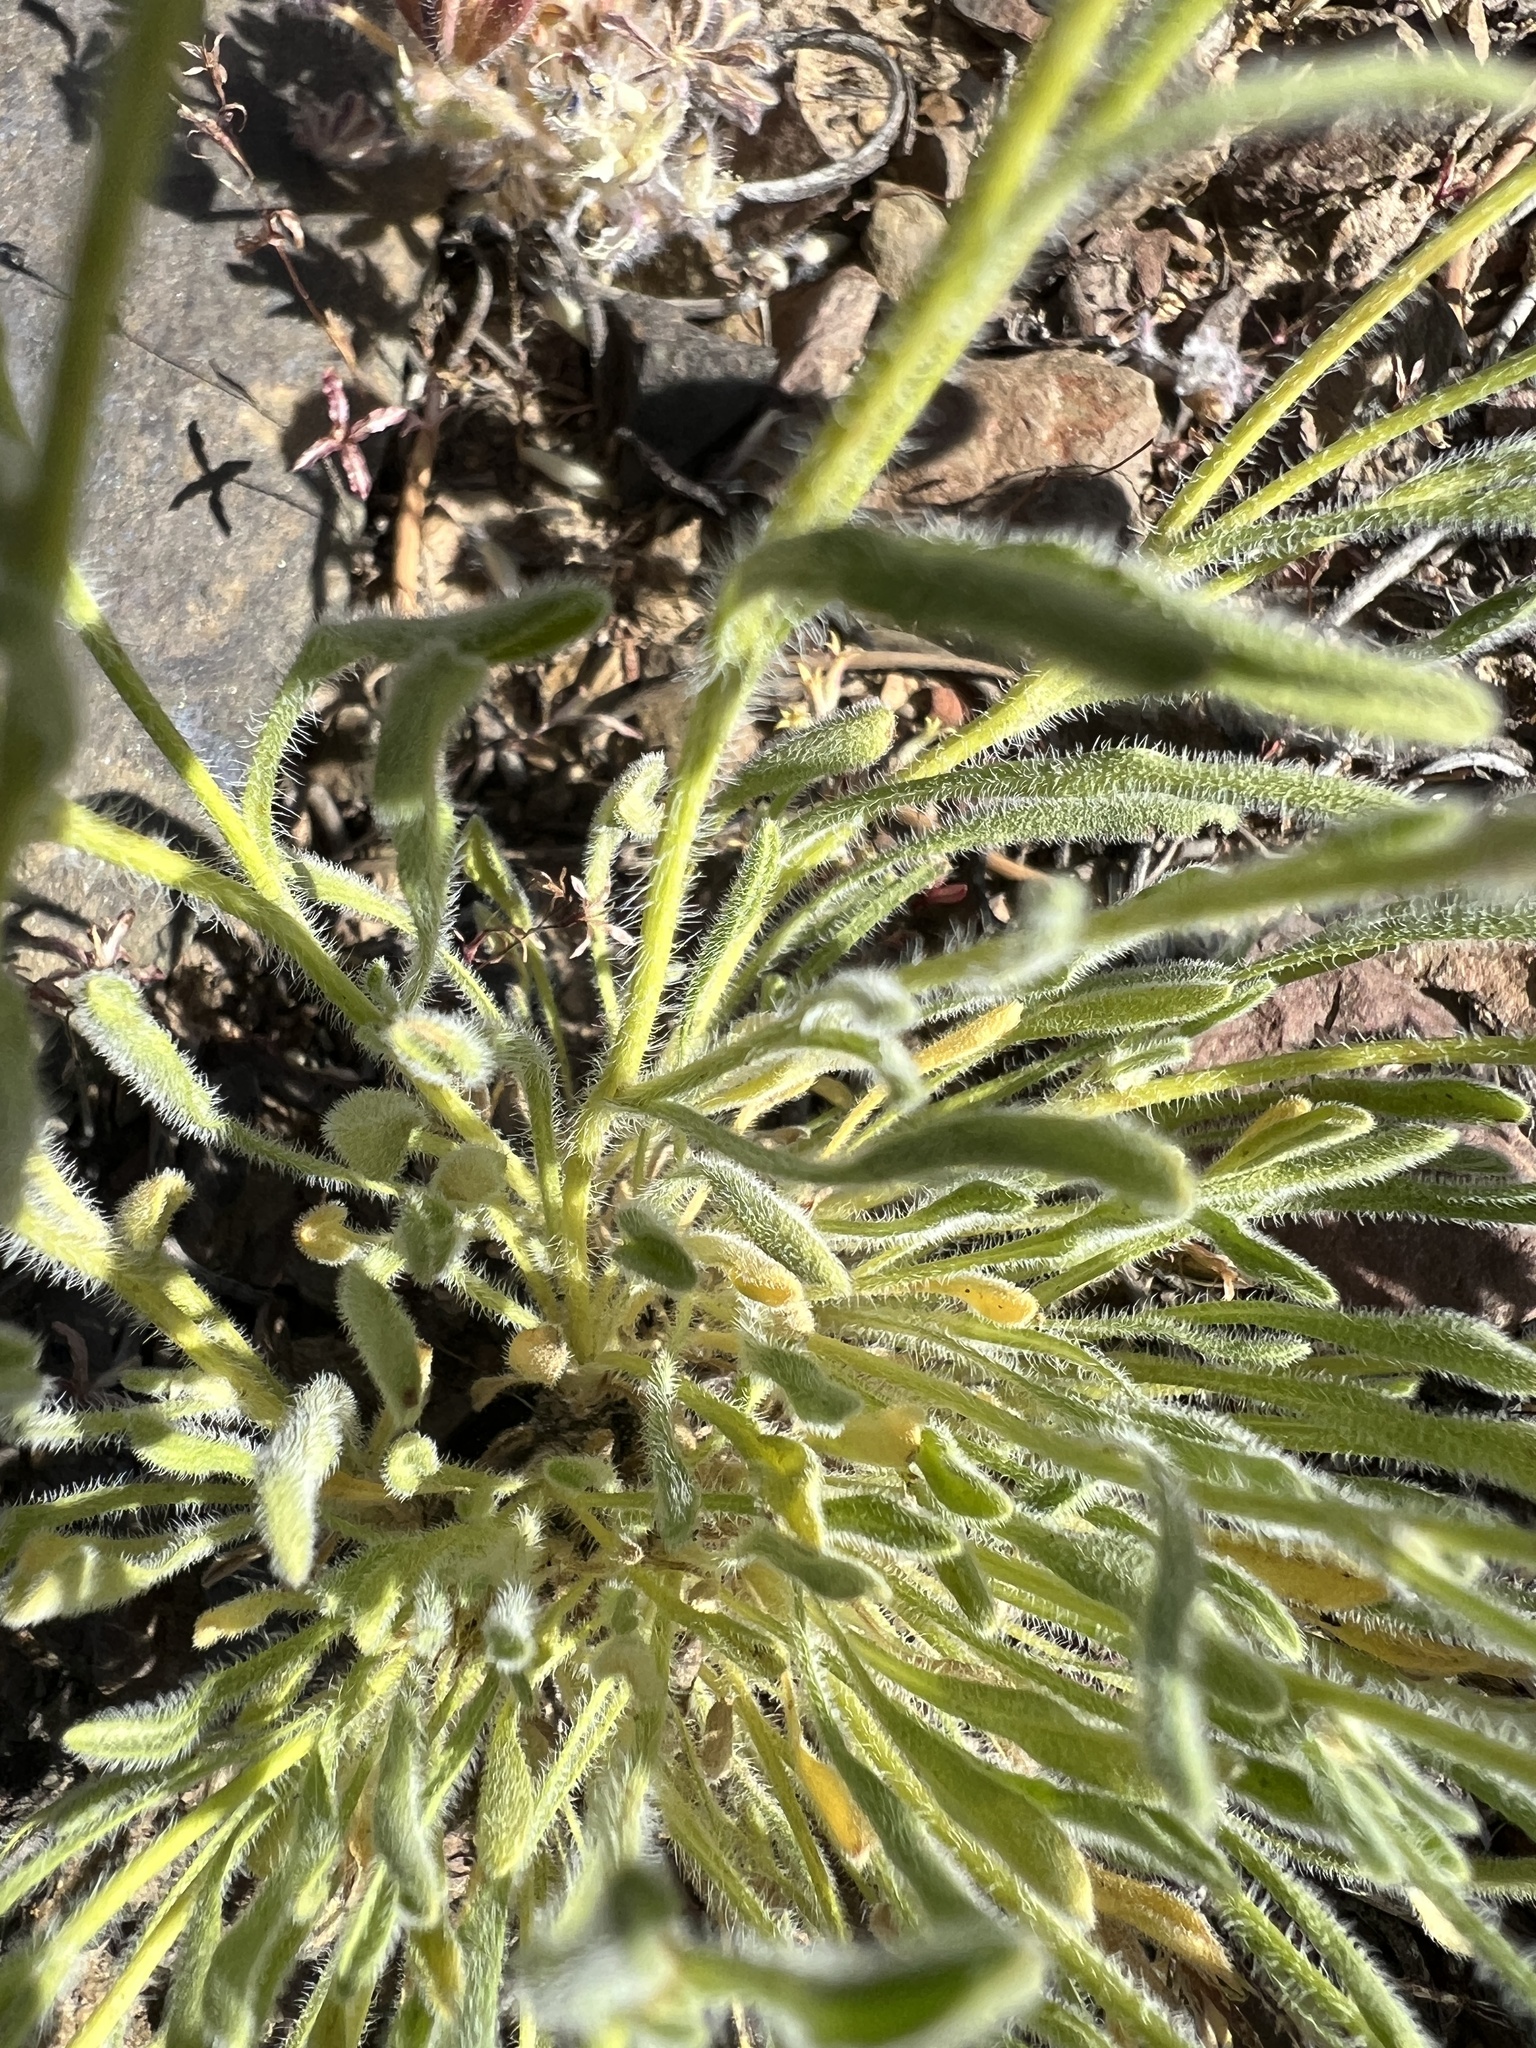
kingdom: Plantae
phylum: Tracheophyta
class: Magnoliopsida
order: Asterales
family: Asteraceae
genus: Erigeron
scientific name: Erigeron aphanactis
